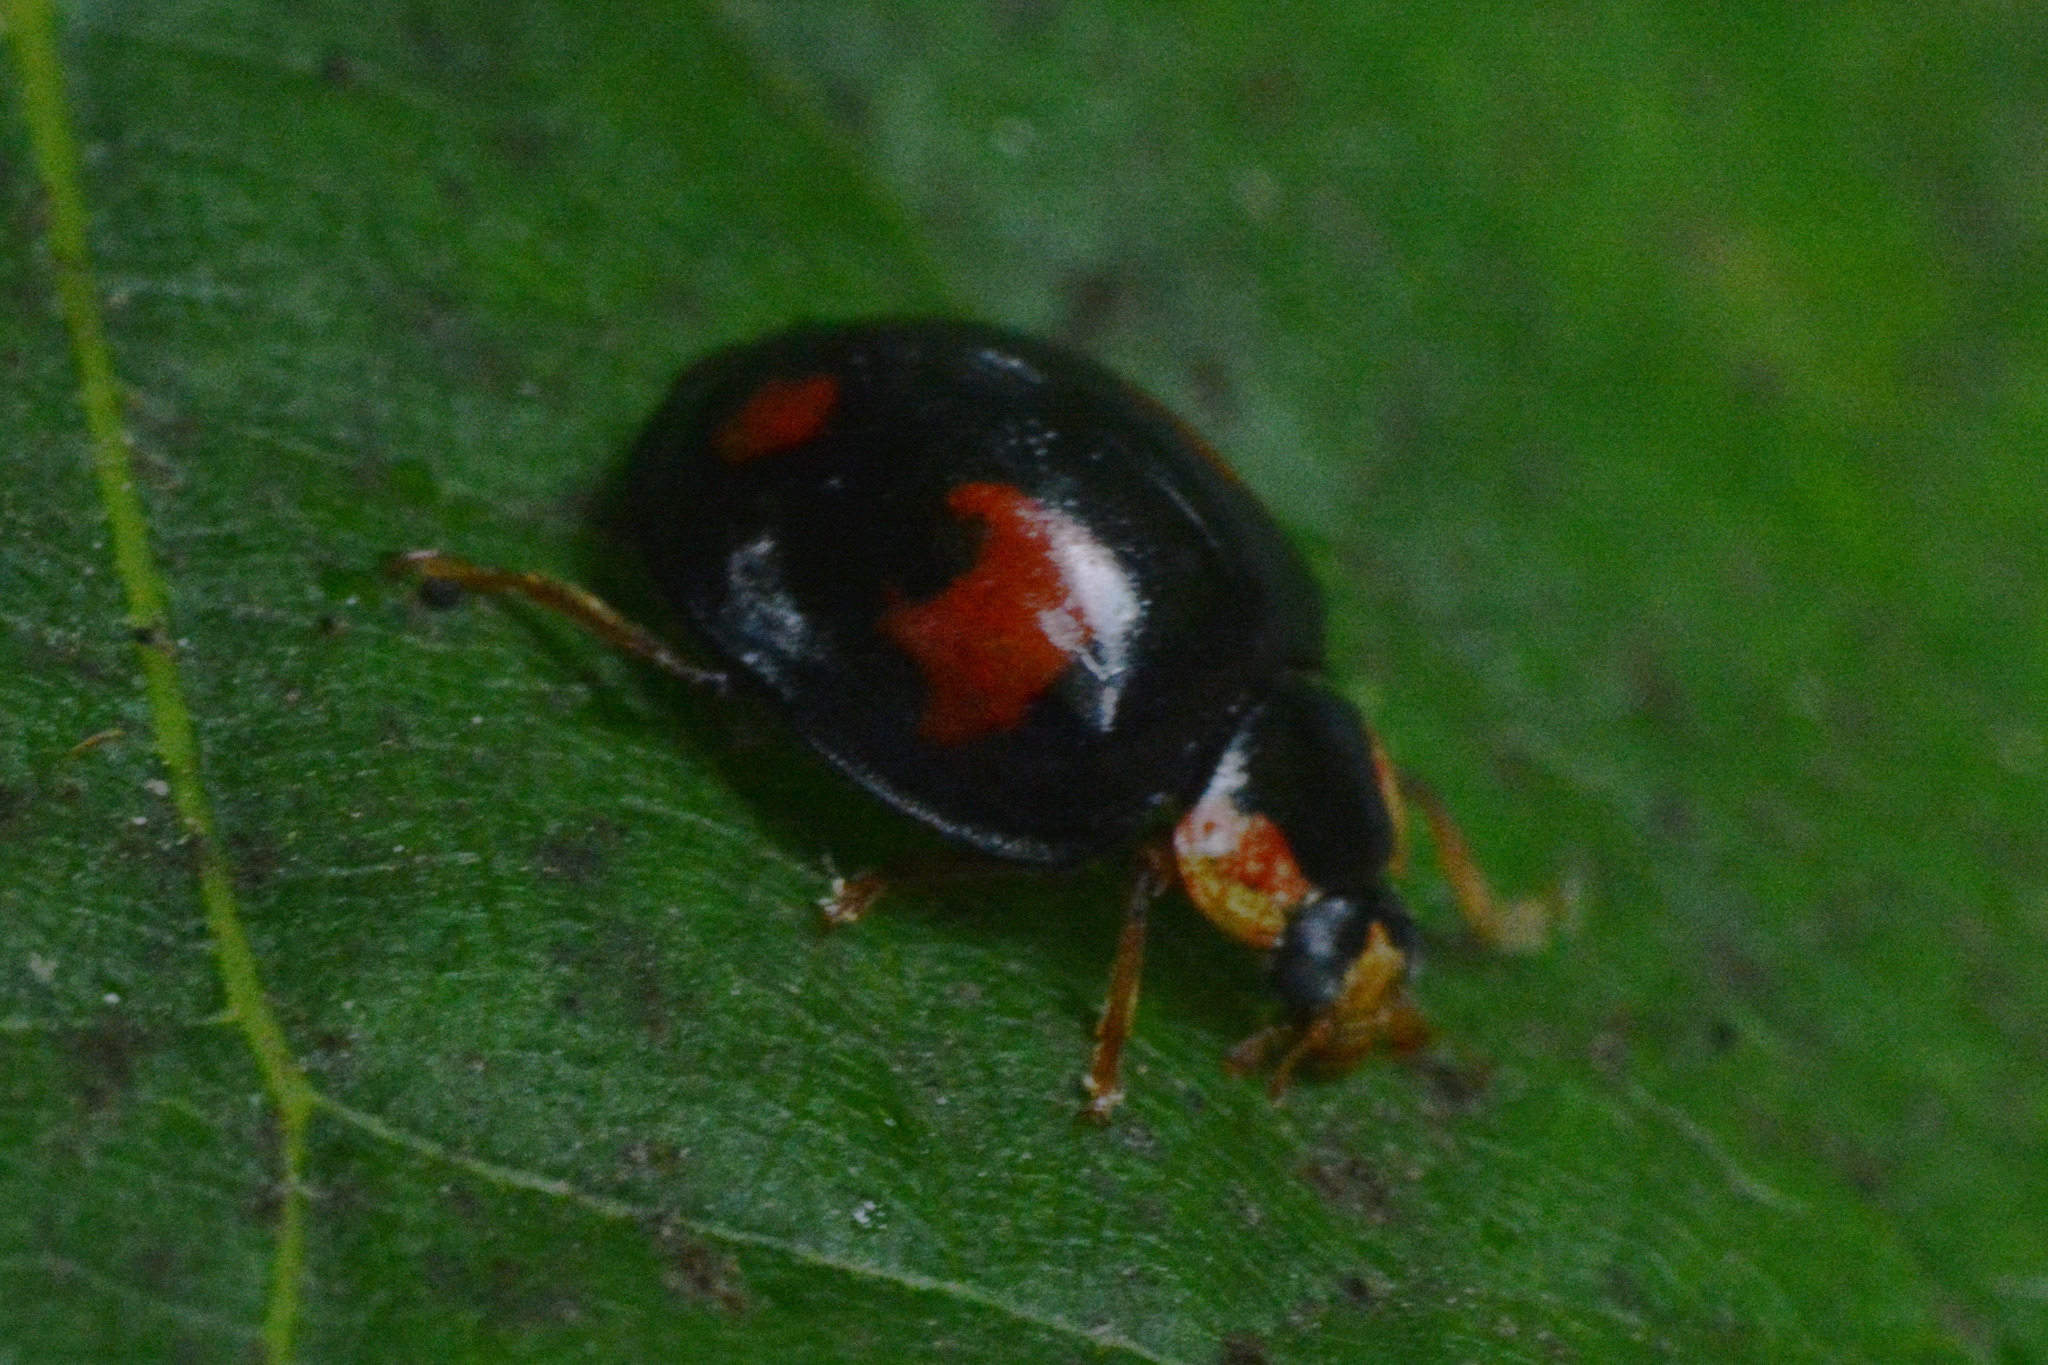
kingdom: Animalia
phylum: Arthropoda
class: Insecta
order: Coleoptera
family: Coccinellidae
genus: Harmonia
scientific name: Harmonia axyridis
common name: Harlequin ladybird
